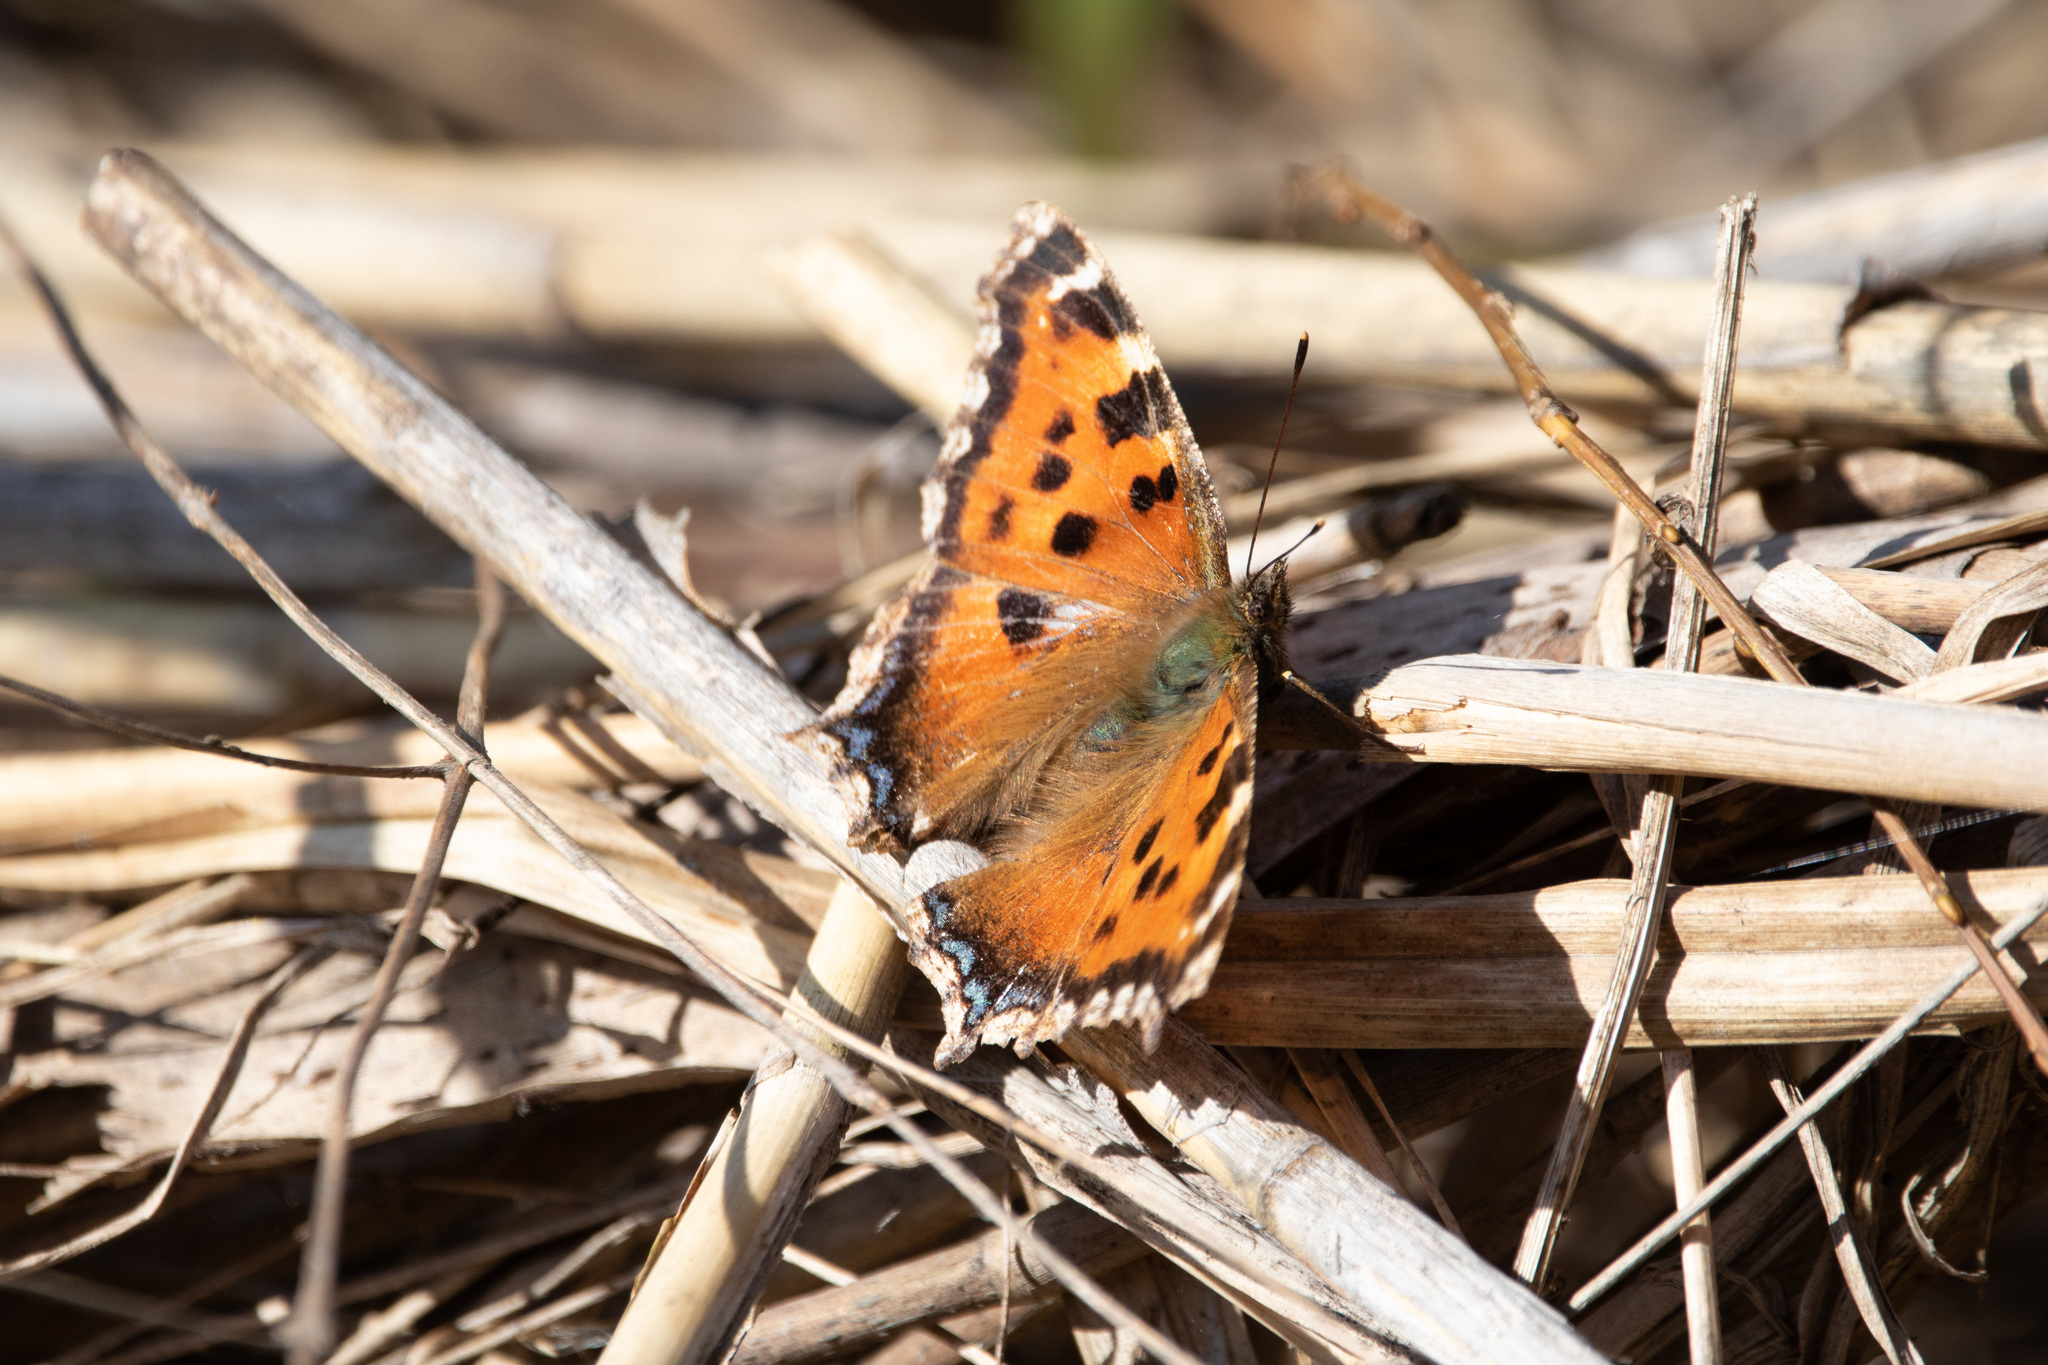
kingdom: Animalia
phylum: Arthropoda
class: Insecta
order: Lepidoptera
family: Nymphalidae
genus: Nymphalis
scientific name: Nymphalis xanthomelas
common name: Scarce tortoiseshell
